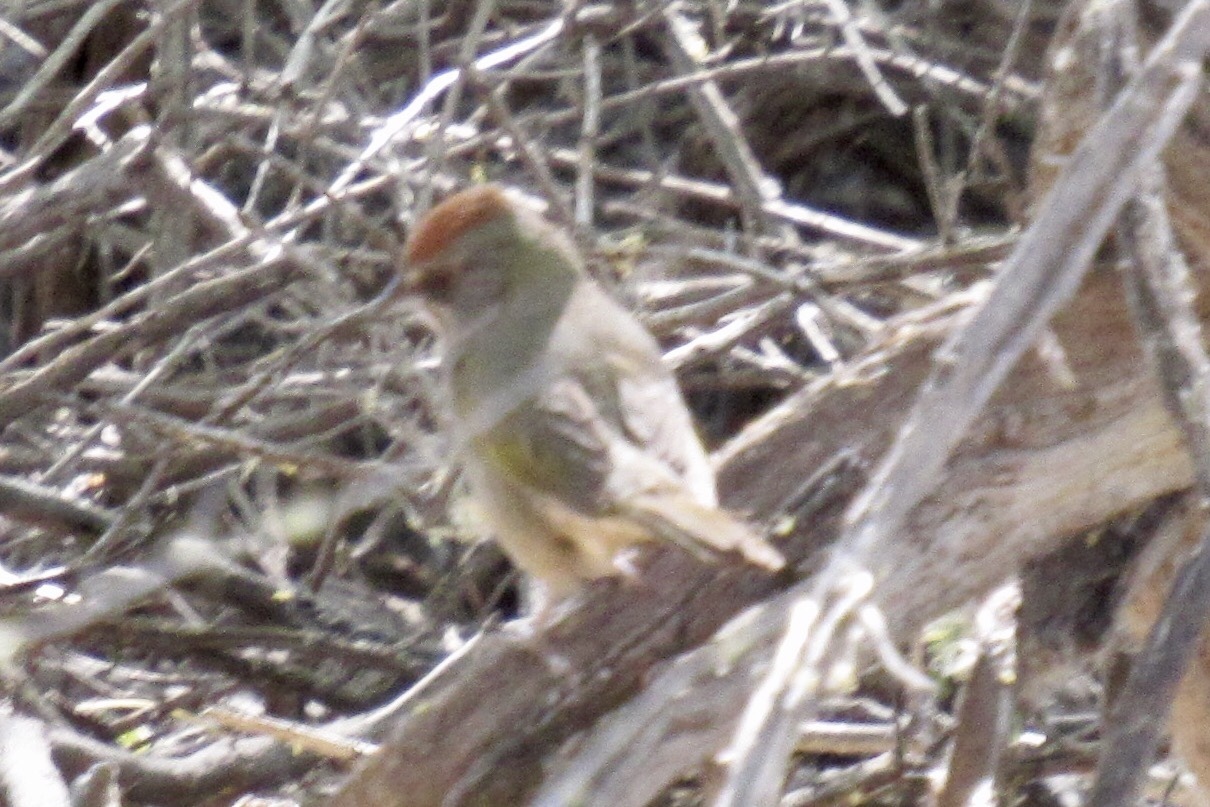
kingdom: Animalia
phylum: Chordata
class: Aves
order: Passeriformes
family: Passerellidae
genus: Pipilo
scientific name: Pipilo chlorurus
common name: Green-tailed towhee
